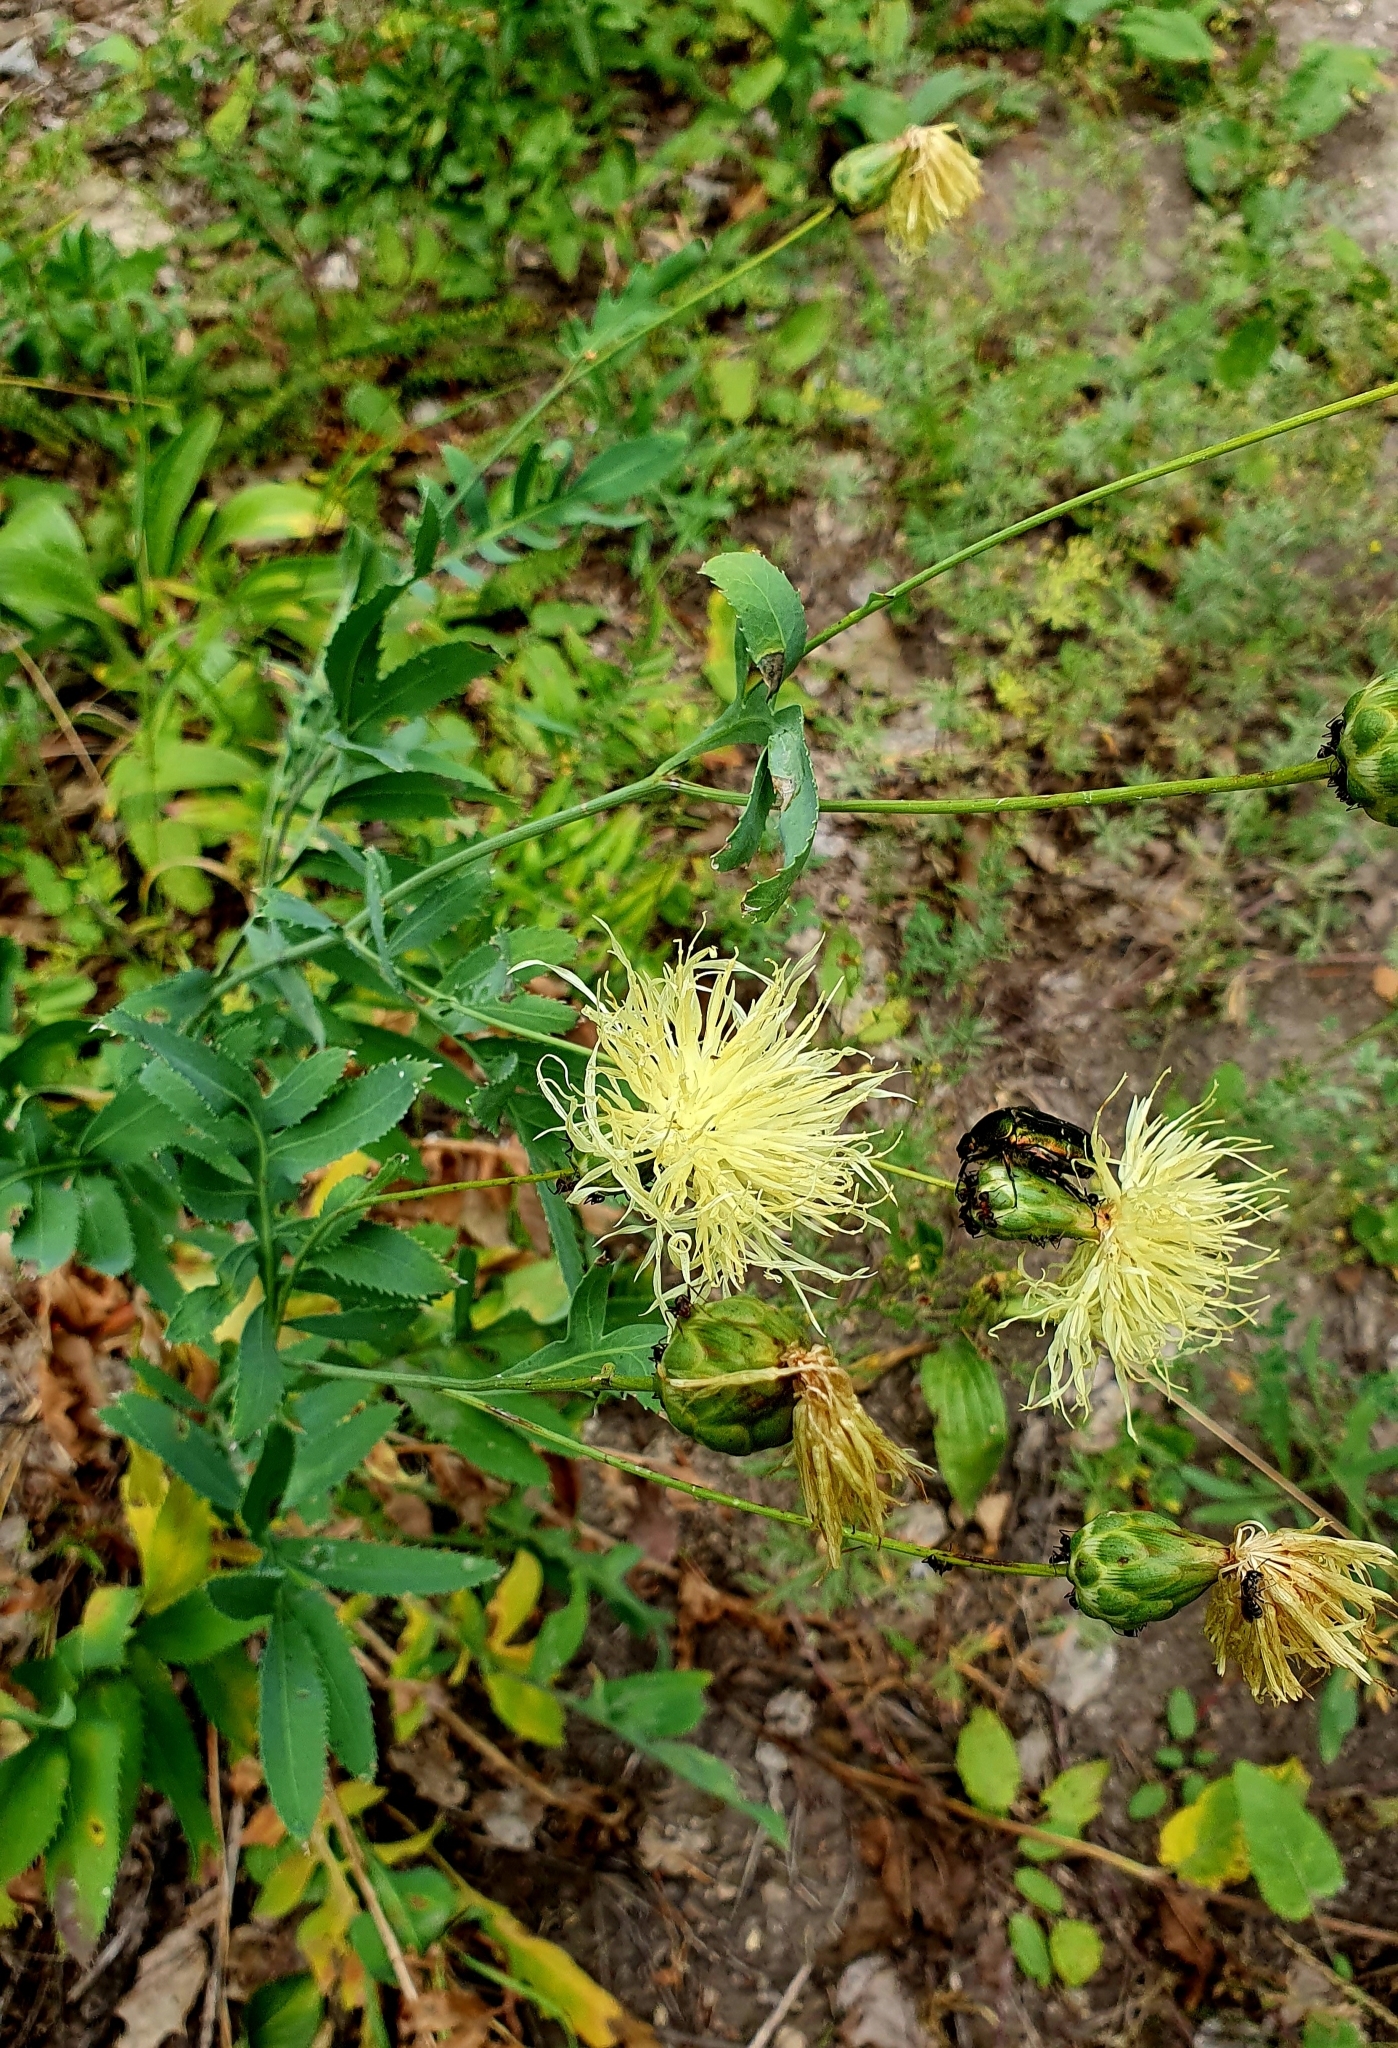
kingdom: Plantae
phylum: Tracheophyta
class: Magnoliopsida
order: Asterales
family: Asteraceae
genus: Rhaponticoides
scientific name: Rhaponticoides ruthenica
